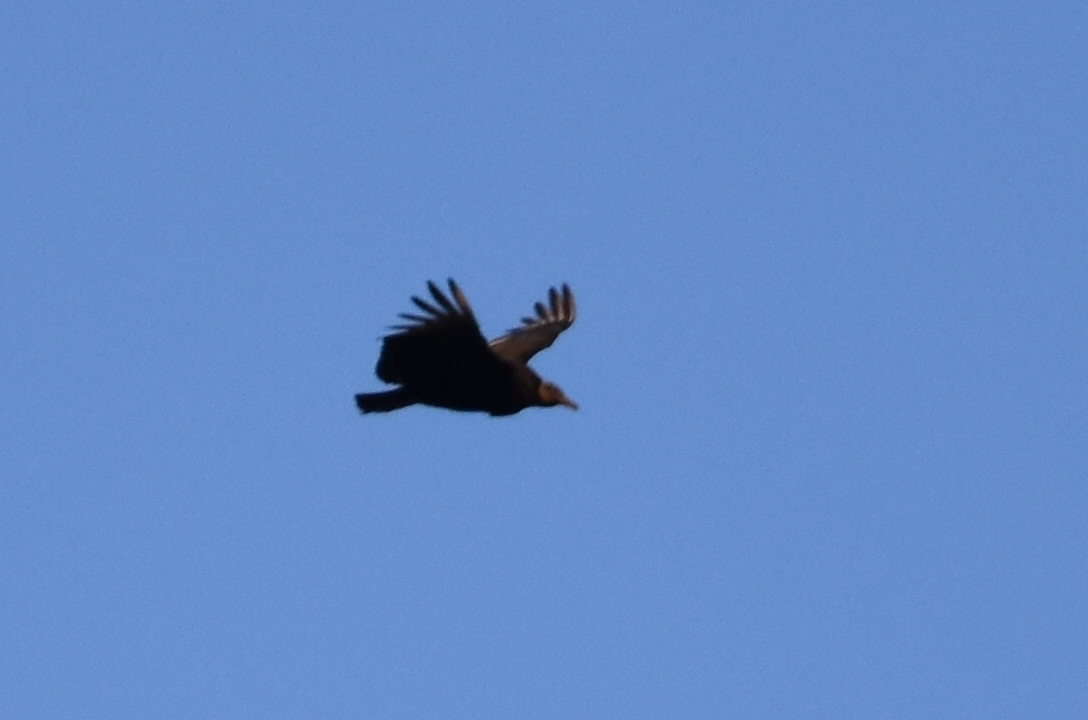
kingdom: Animalia
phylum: Chordata
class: Aves
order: Accipitriformes
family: Cathartidae
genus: Coragyps
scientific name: Coragyps atratus
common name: Black vulture
